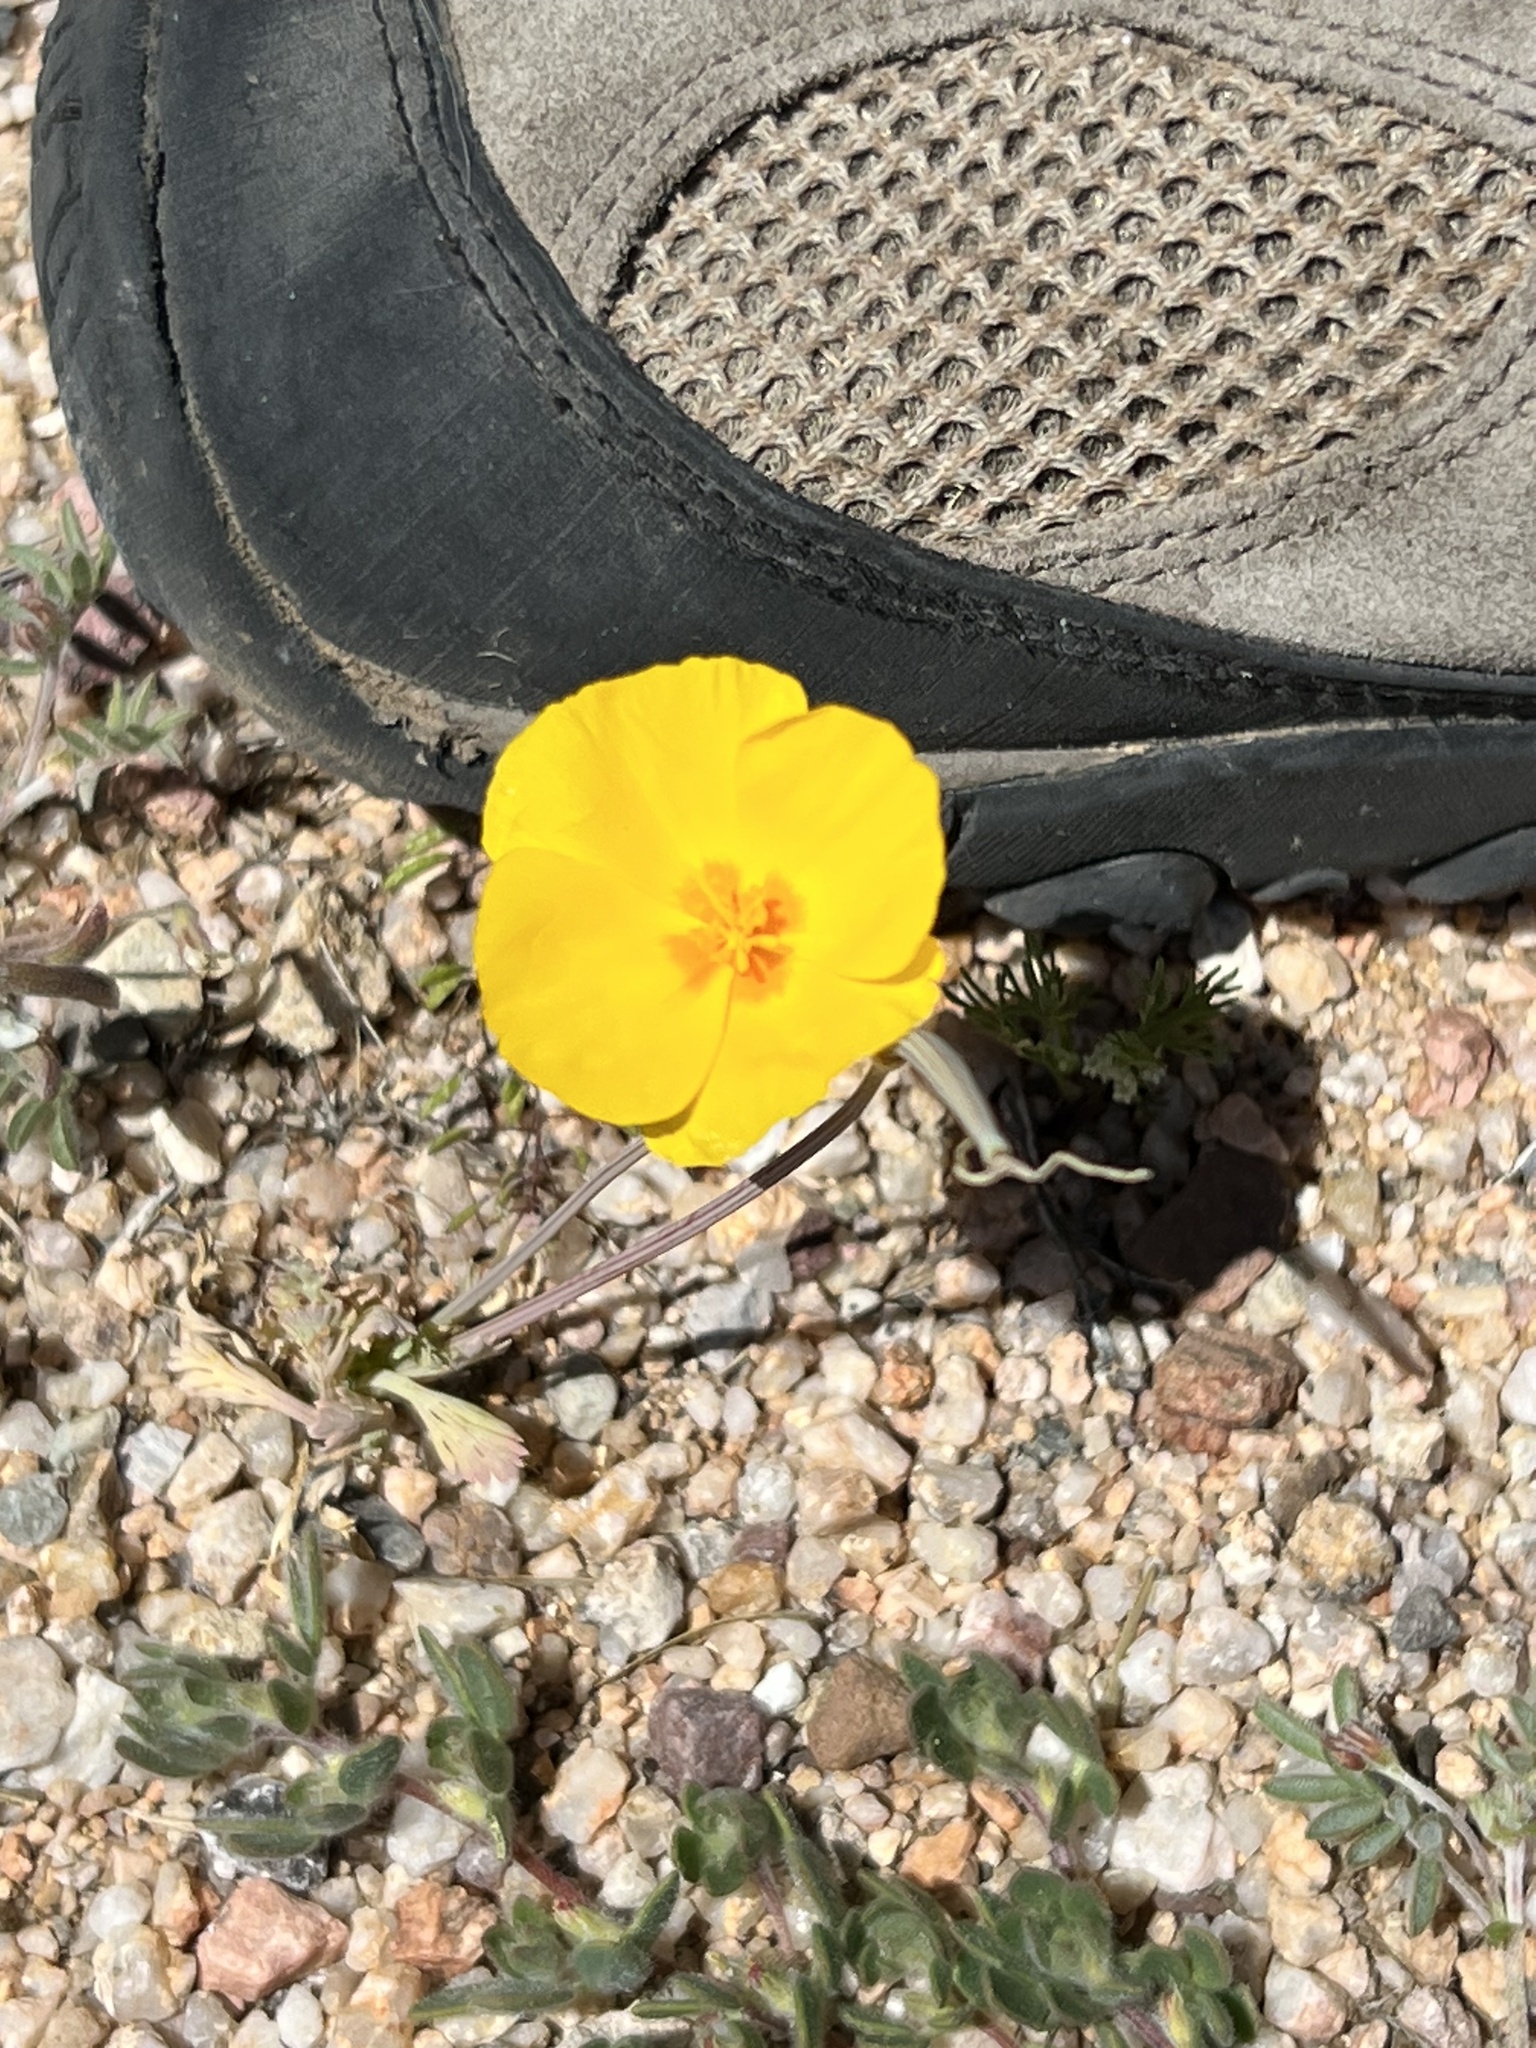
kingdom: Plantae
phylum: Tracheophyta
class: Magnoliopsida
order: Ranunculales
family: Papaveraceae
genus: Eschscholzia
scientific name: Eschscholzia californica
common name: California poppy
